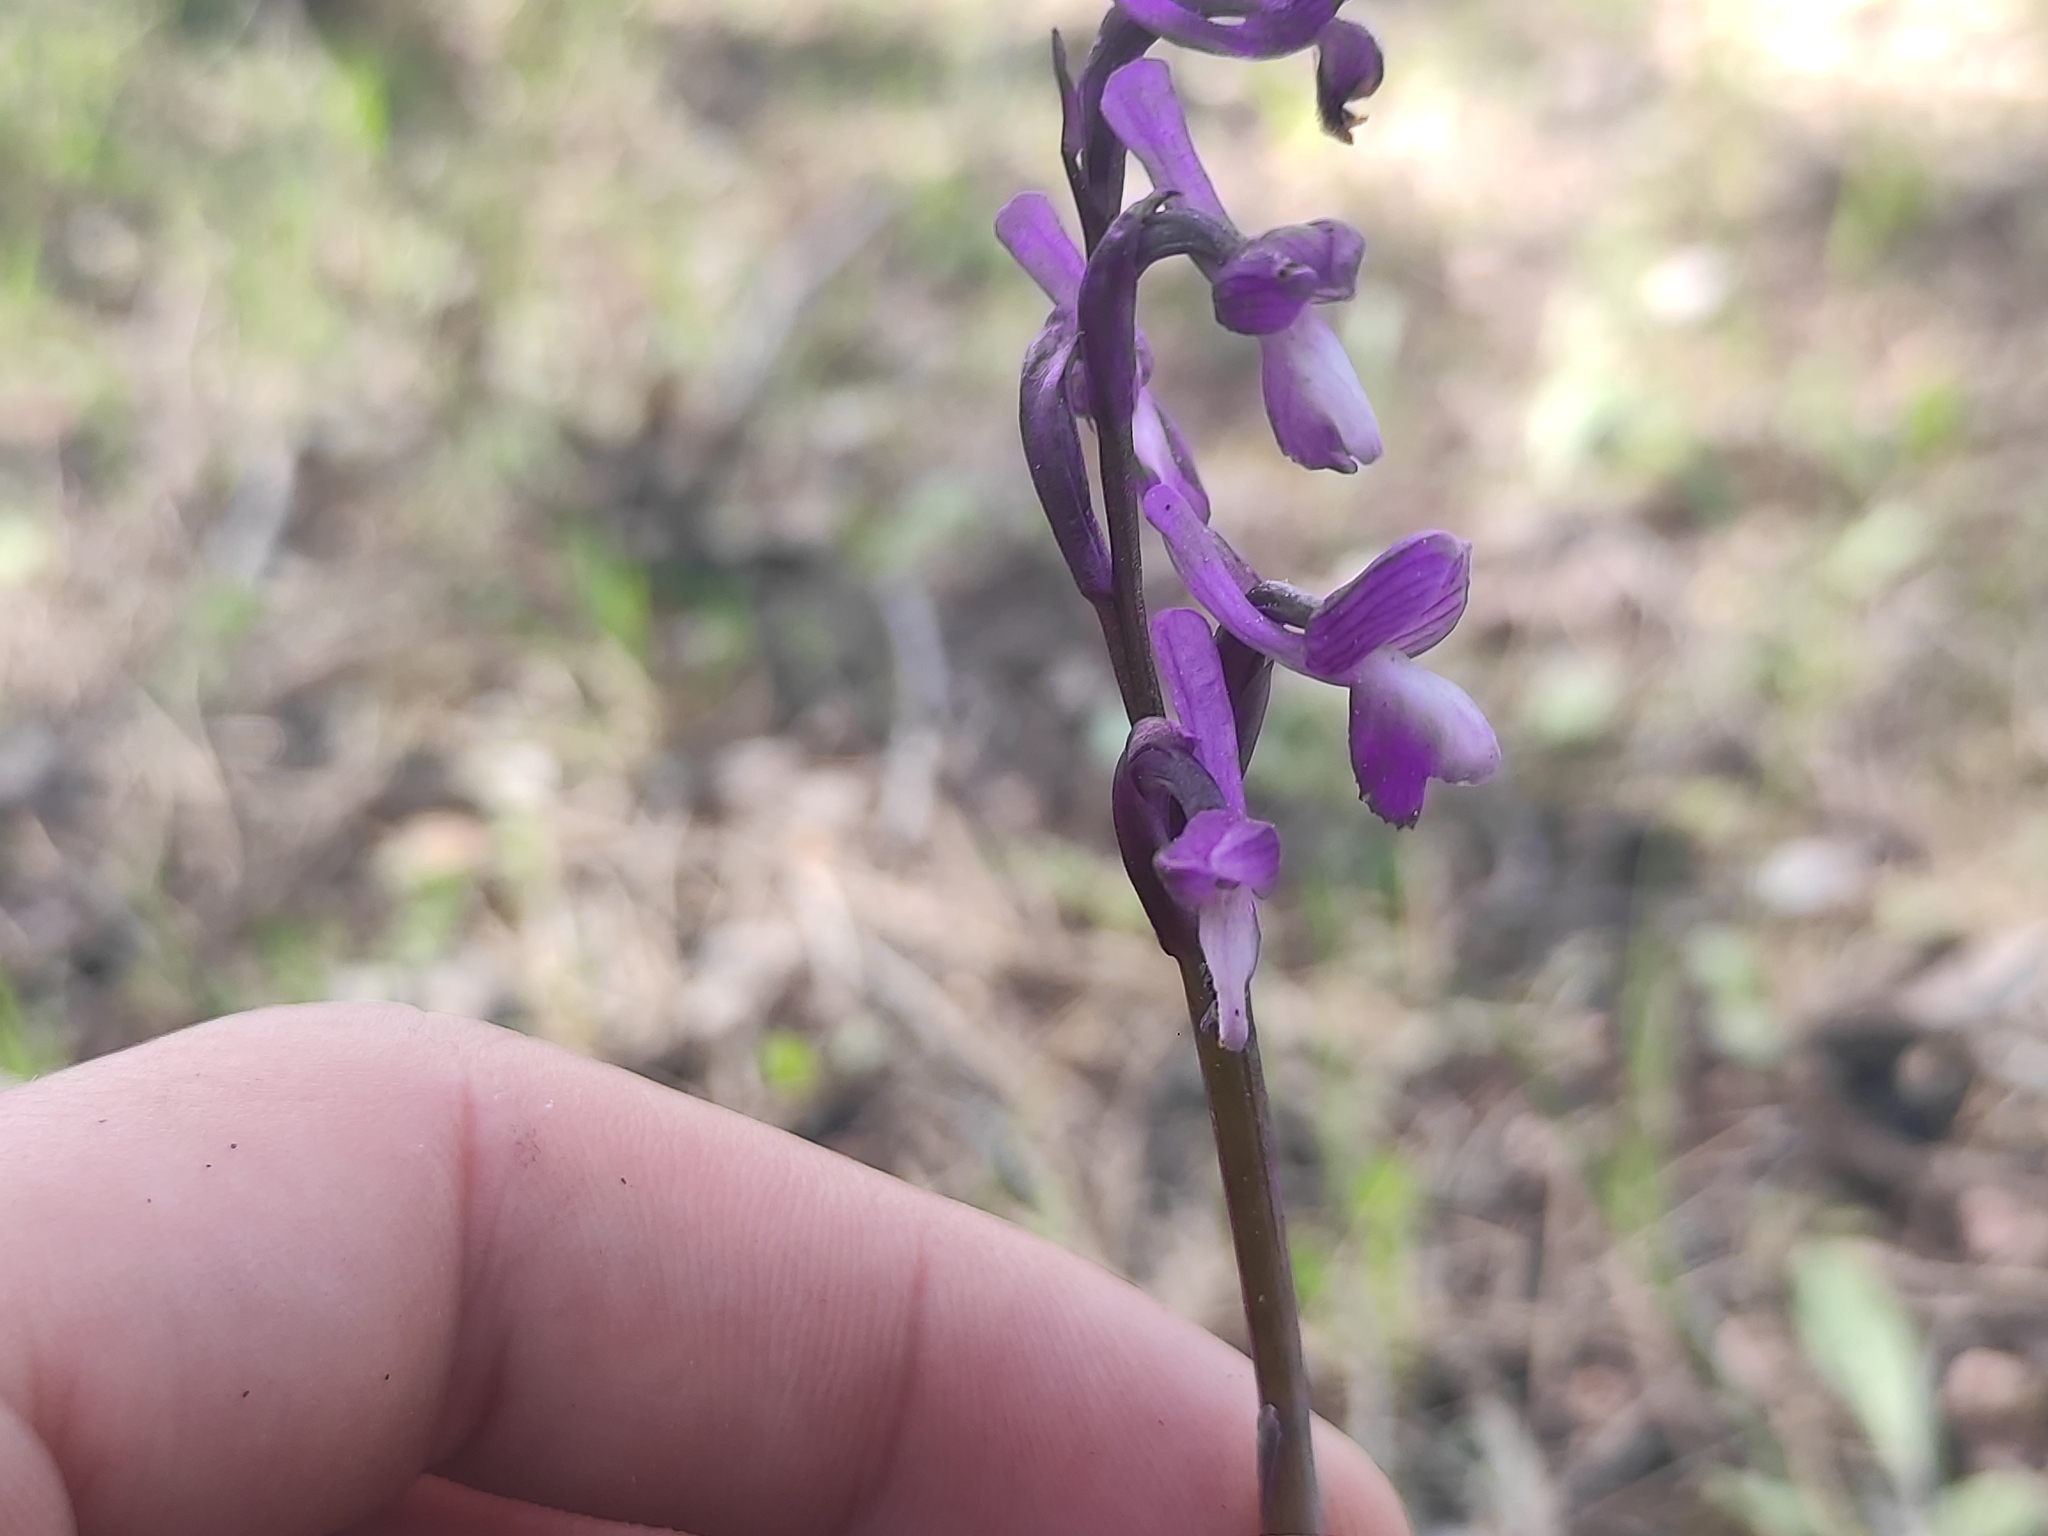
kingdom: Plantae
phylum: Tracheophyta
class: Liliopsida
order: Asparagales
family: Orchidaceae
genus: Anacamptis
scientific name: Anacamptis morio
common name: Green-winged orchid
